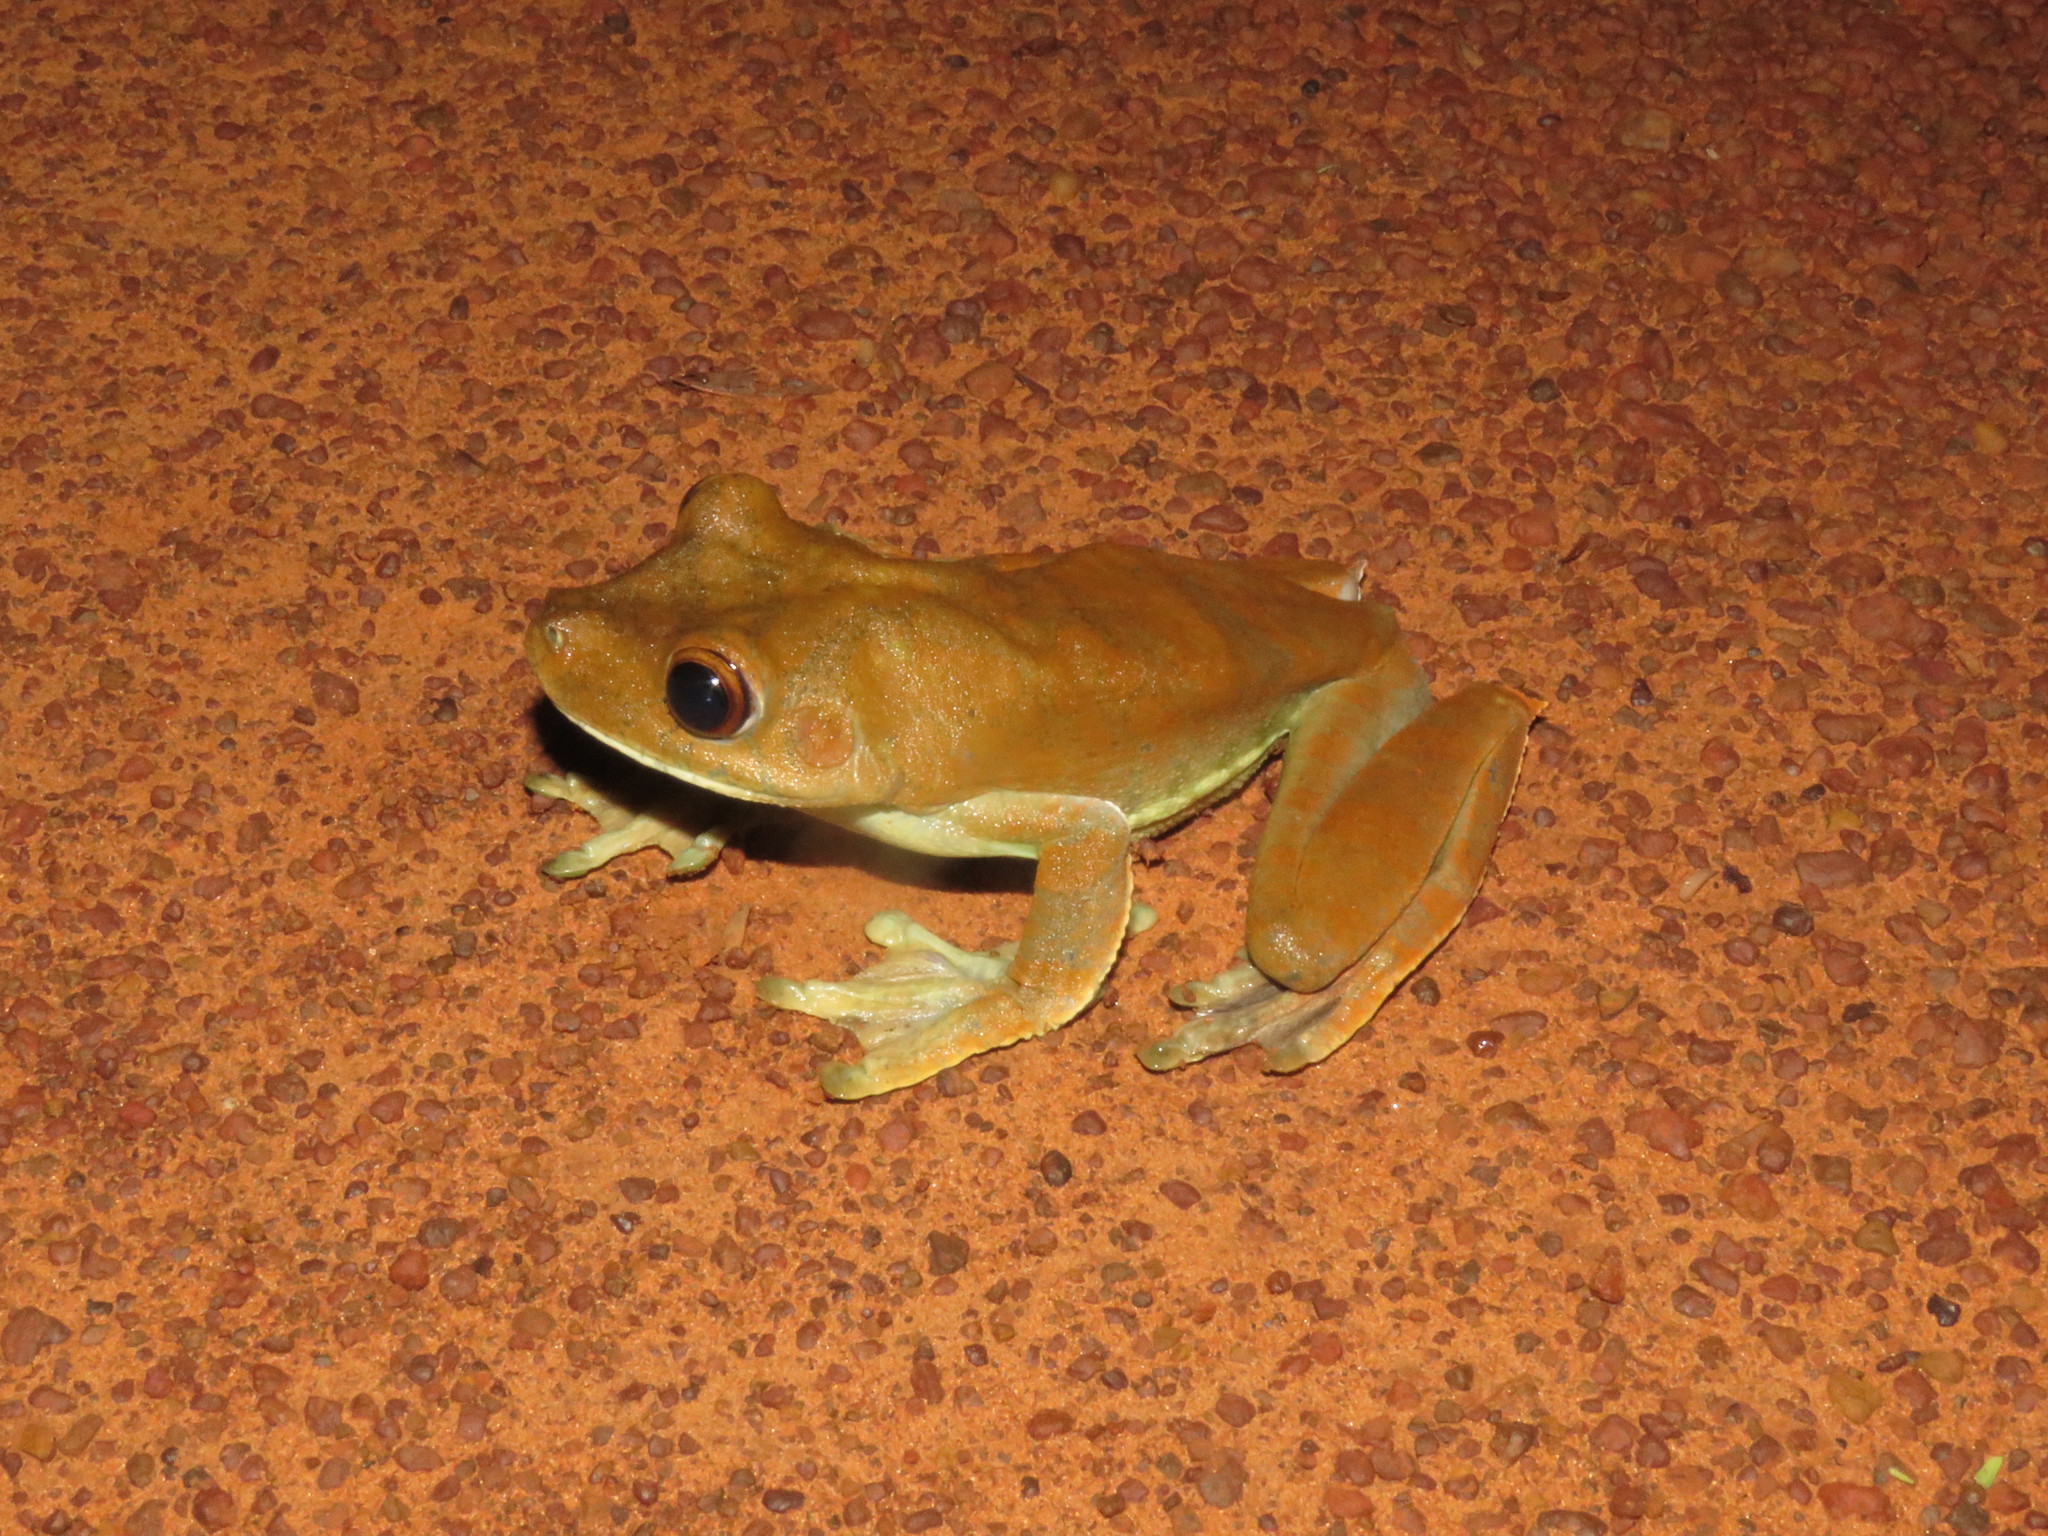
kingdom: Animalia
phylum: Chordata
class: Amphibia
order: Anura
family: Hylidae
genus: Boana
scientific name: Boana boans
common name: Giant gladiator treefrog
